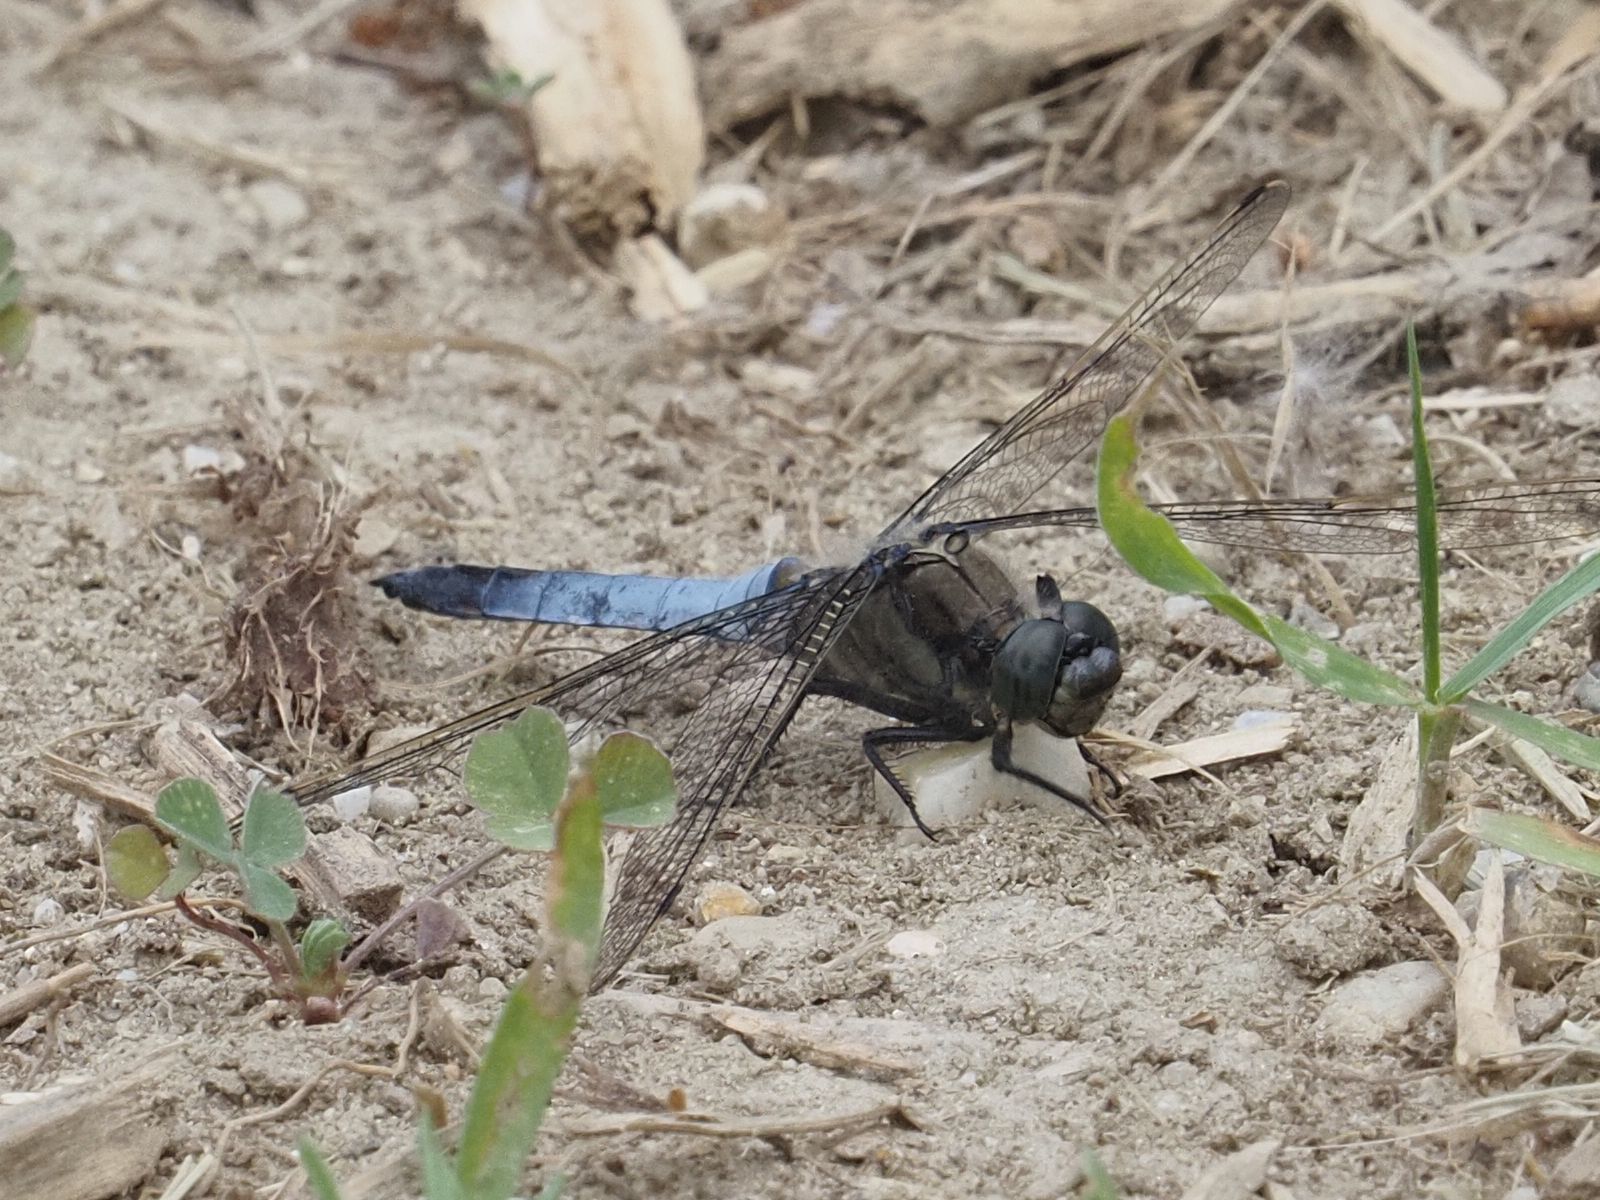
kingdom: Animalia
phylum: Arthropoda
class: Insecta
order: Odonata
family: Libellulidae
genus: Orthetrum
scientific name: Orthetrum cancellatum
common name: Black-tailed skimmer
